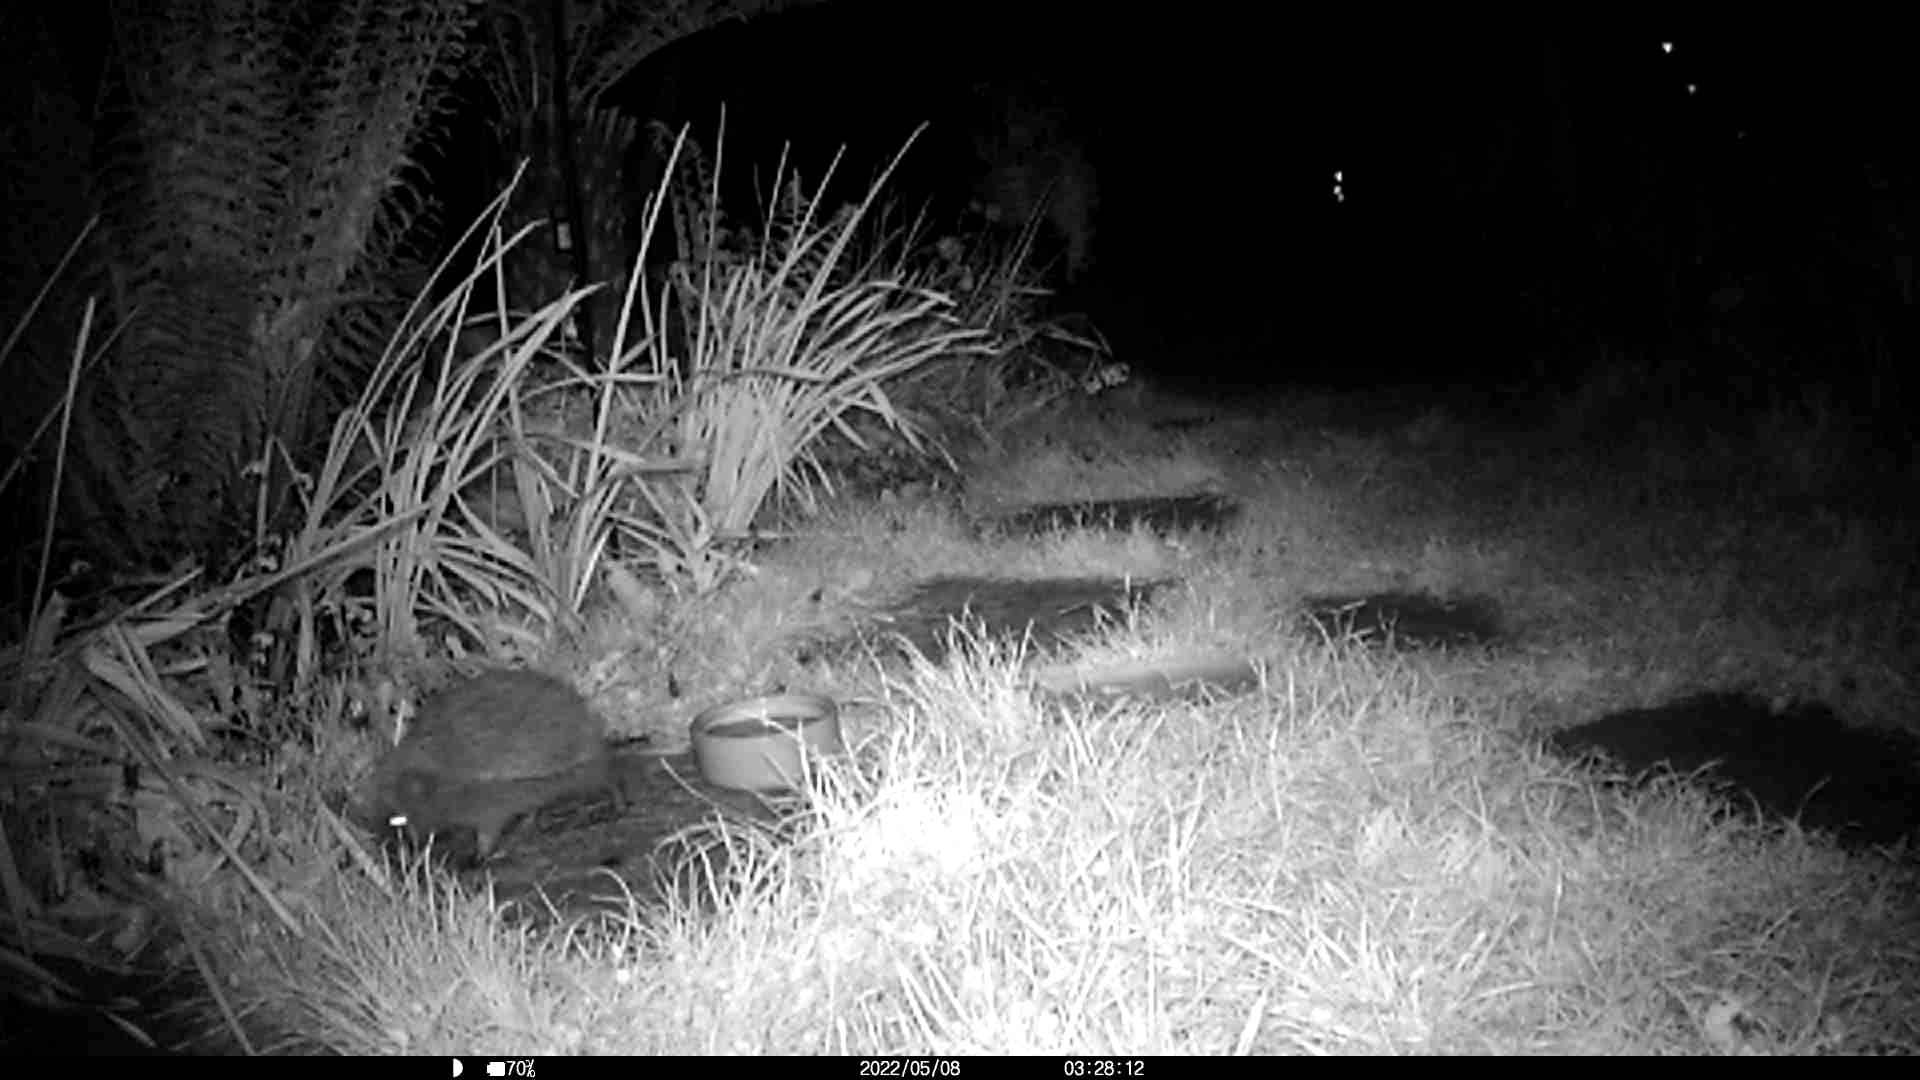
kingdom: Animalia
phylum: Chordata
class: Mammalia
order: Erinaceomorpha
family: Erinaceidae
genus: Erinaceus
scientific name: Erinaceus europaeus
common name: West european hedgehog
